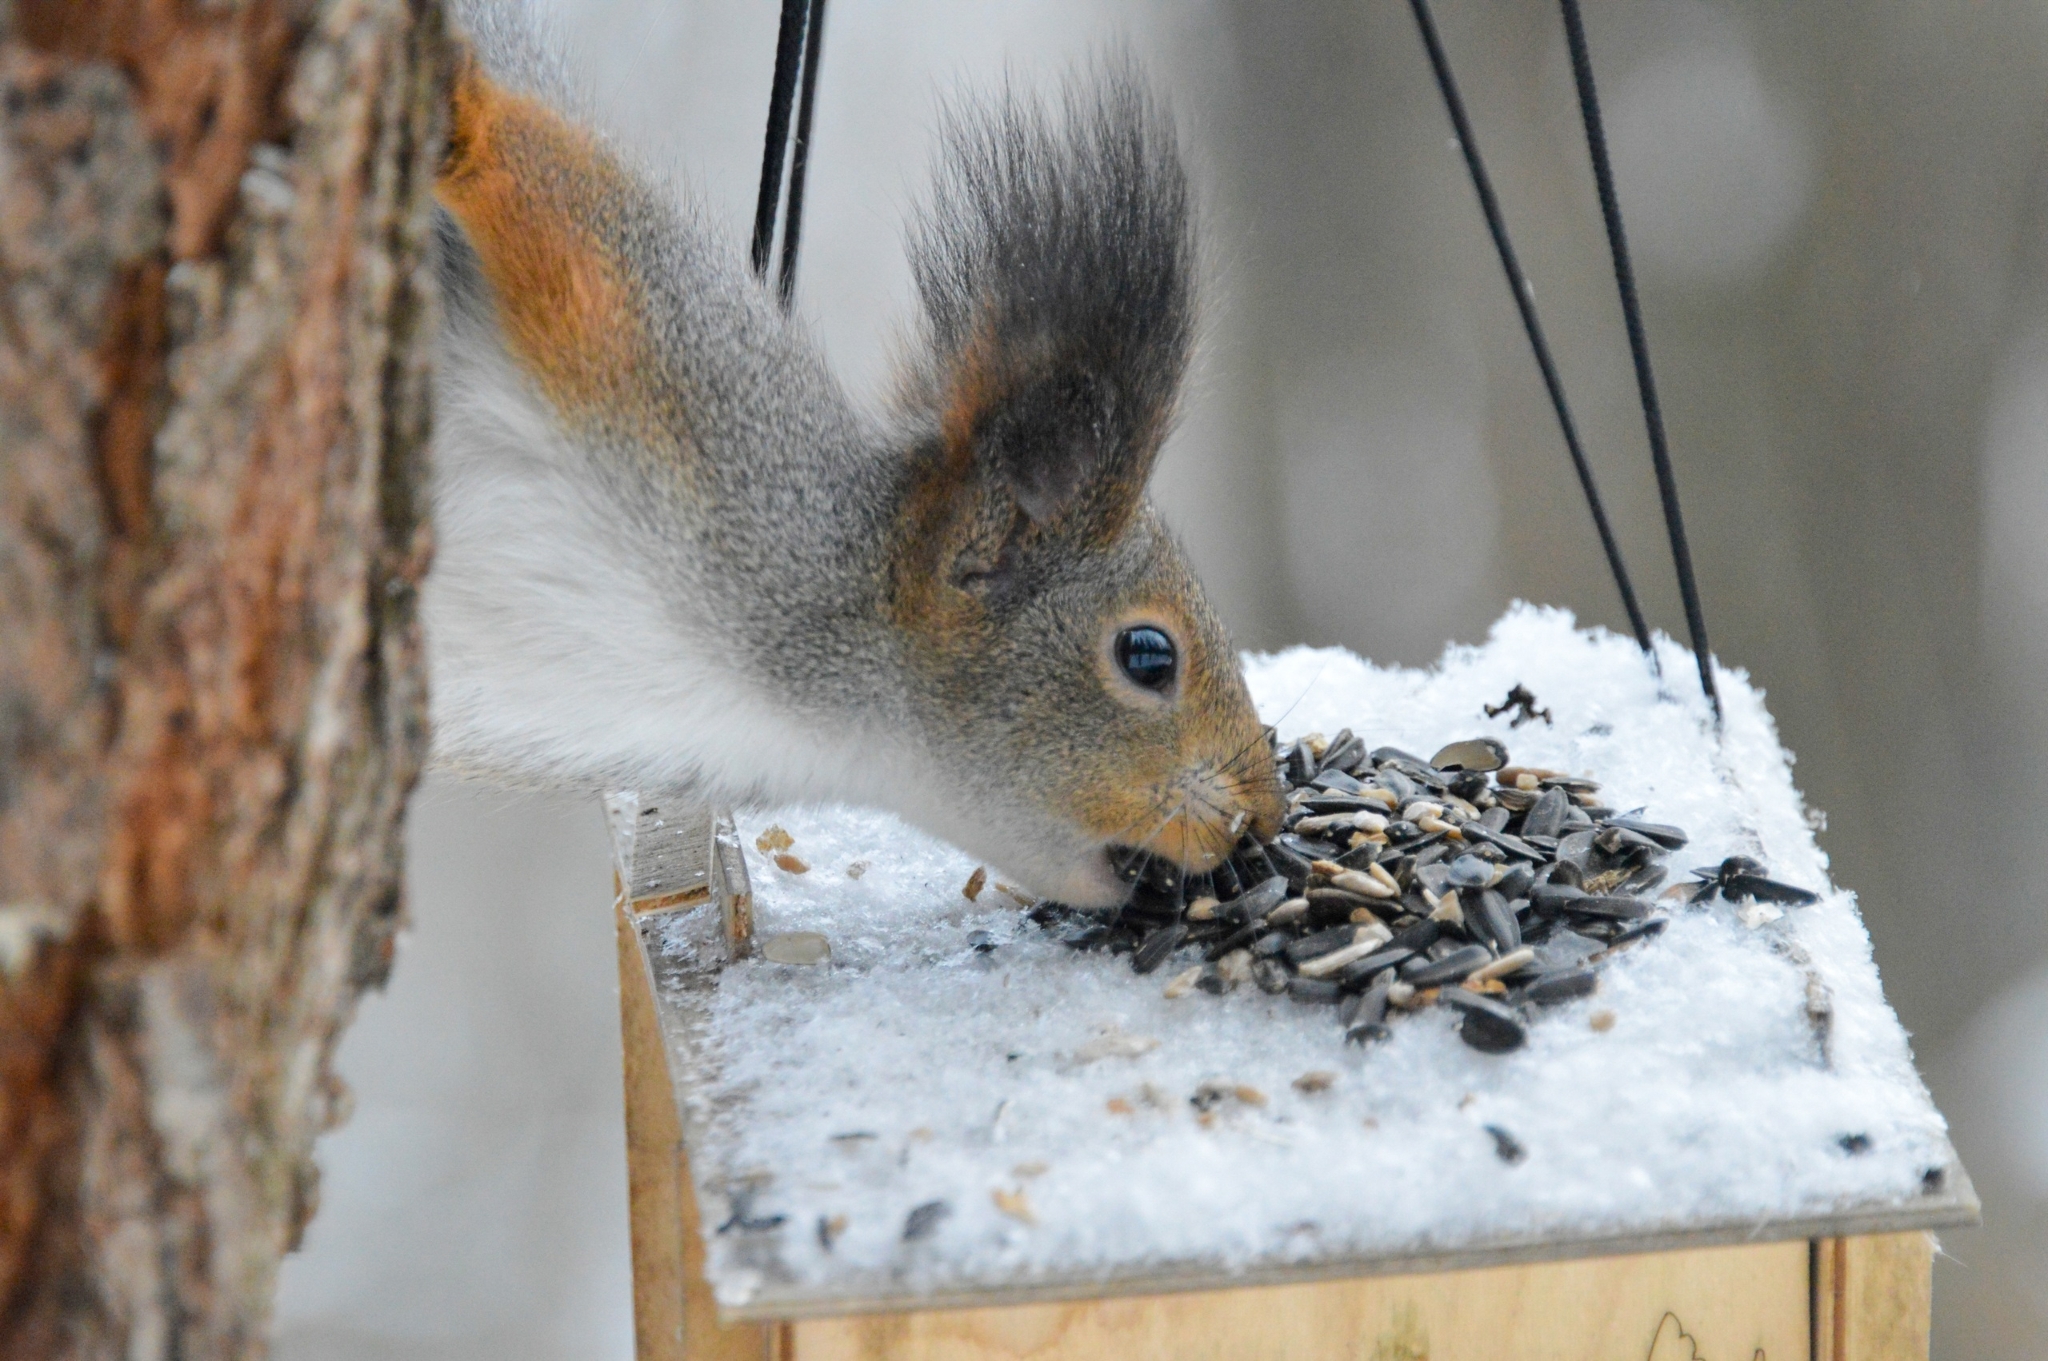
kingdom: Animalia
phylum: Chordata
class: Mammalia
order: Rodentia
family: Sciuridae
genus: Sciurus
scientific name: Sciurus vulgaris
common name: Eurasian red squirrel
